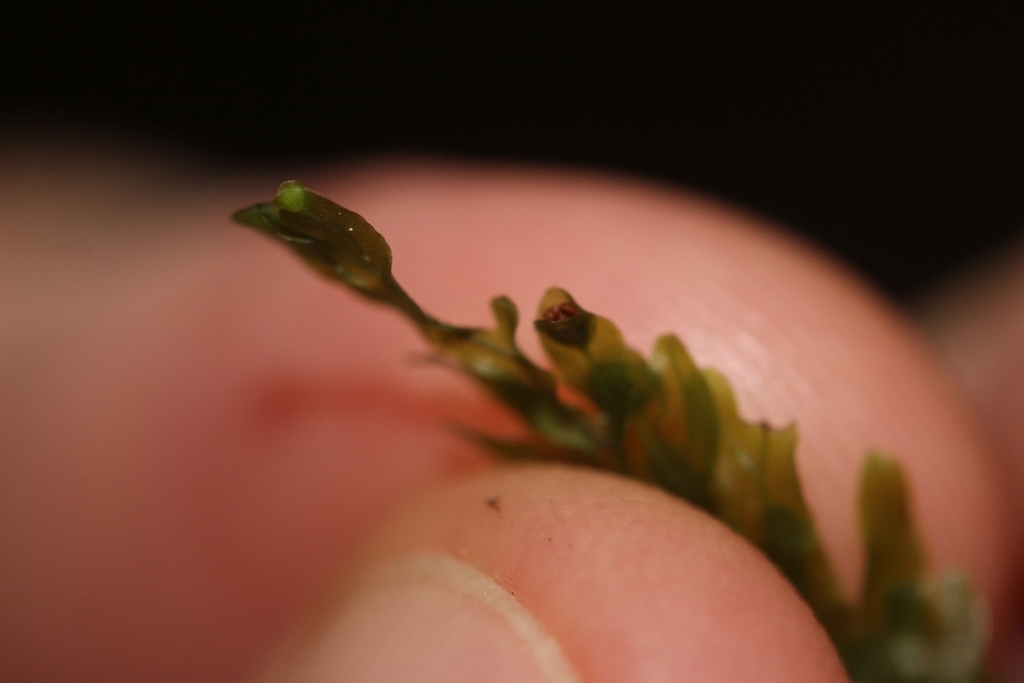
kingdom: Plantae
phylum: Tracheophyta
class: Polypodiopsida
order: Hymenophyllales
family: Hymenophyllaceae
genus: Hymenophyllum
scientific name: Hymenophyllum rarum
